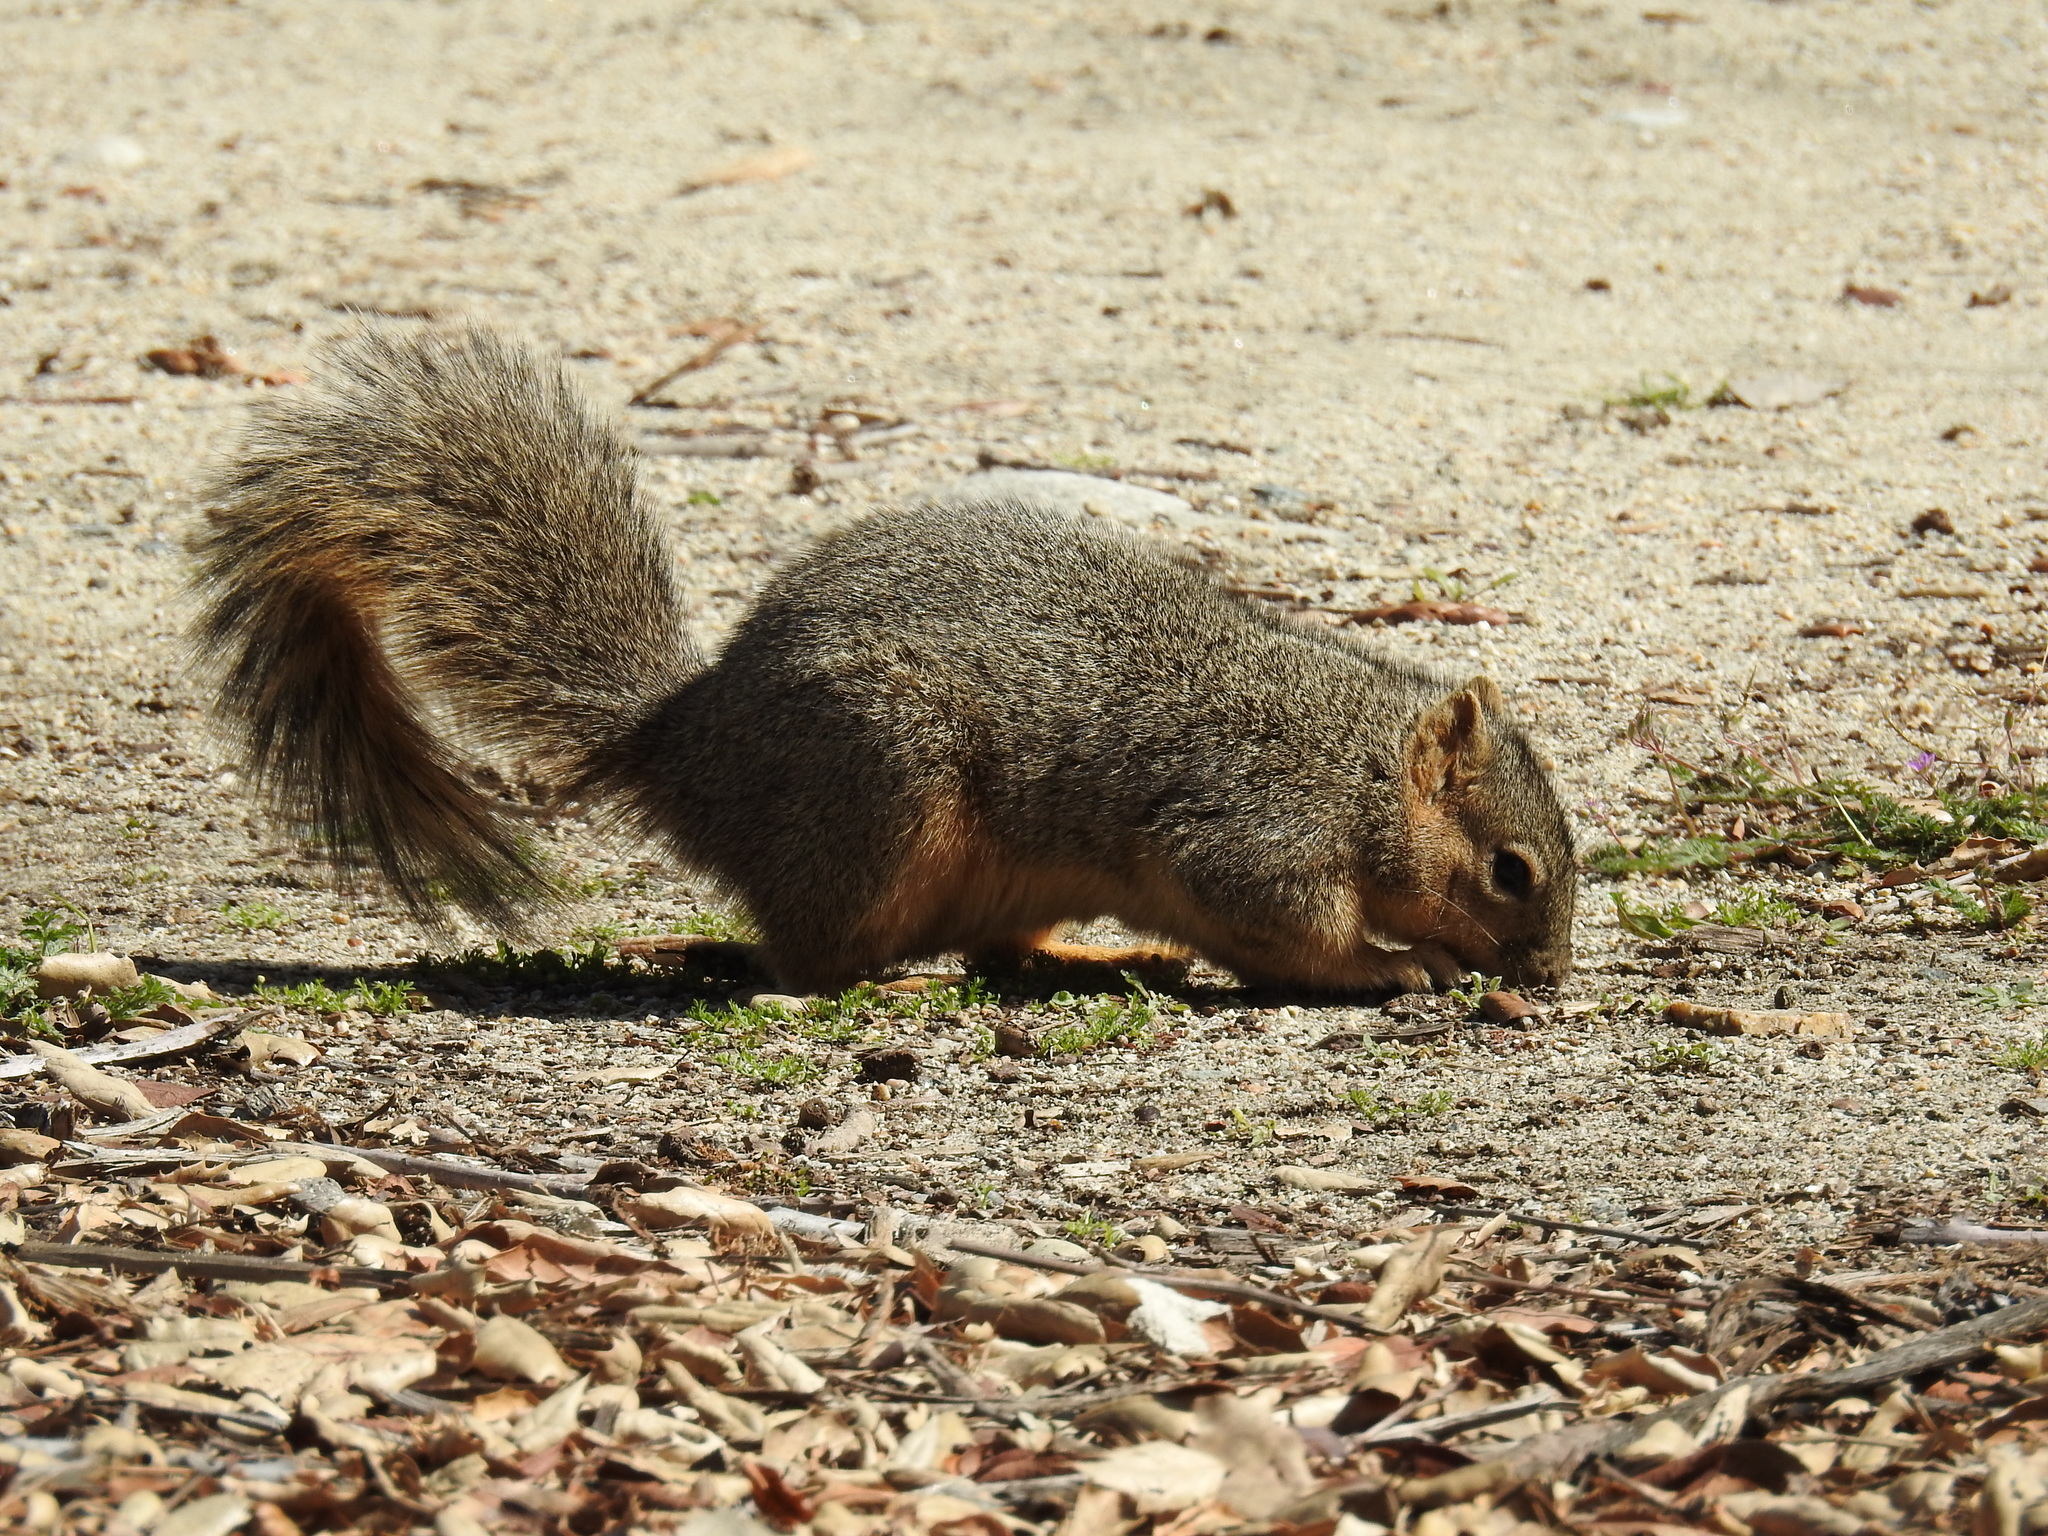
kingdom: Animalia
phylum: Chordata
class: Mammalia
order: Rodentia
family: Sciuridae
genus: Sciurus
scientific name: Sciurus niger
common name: Fox squirrel
